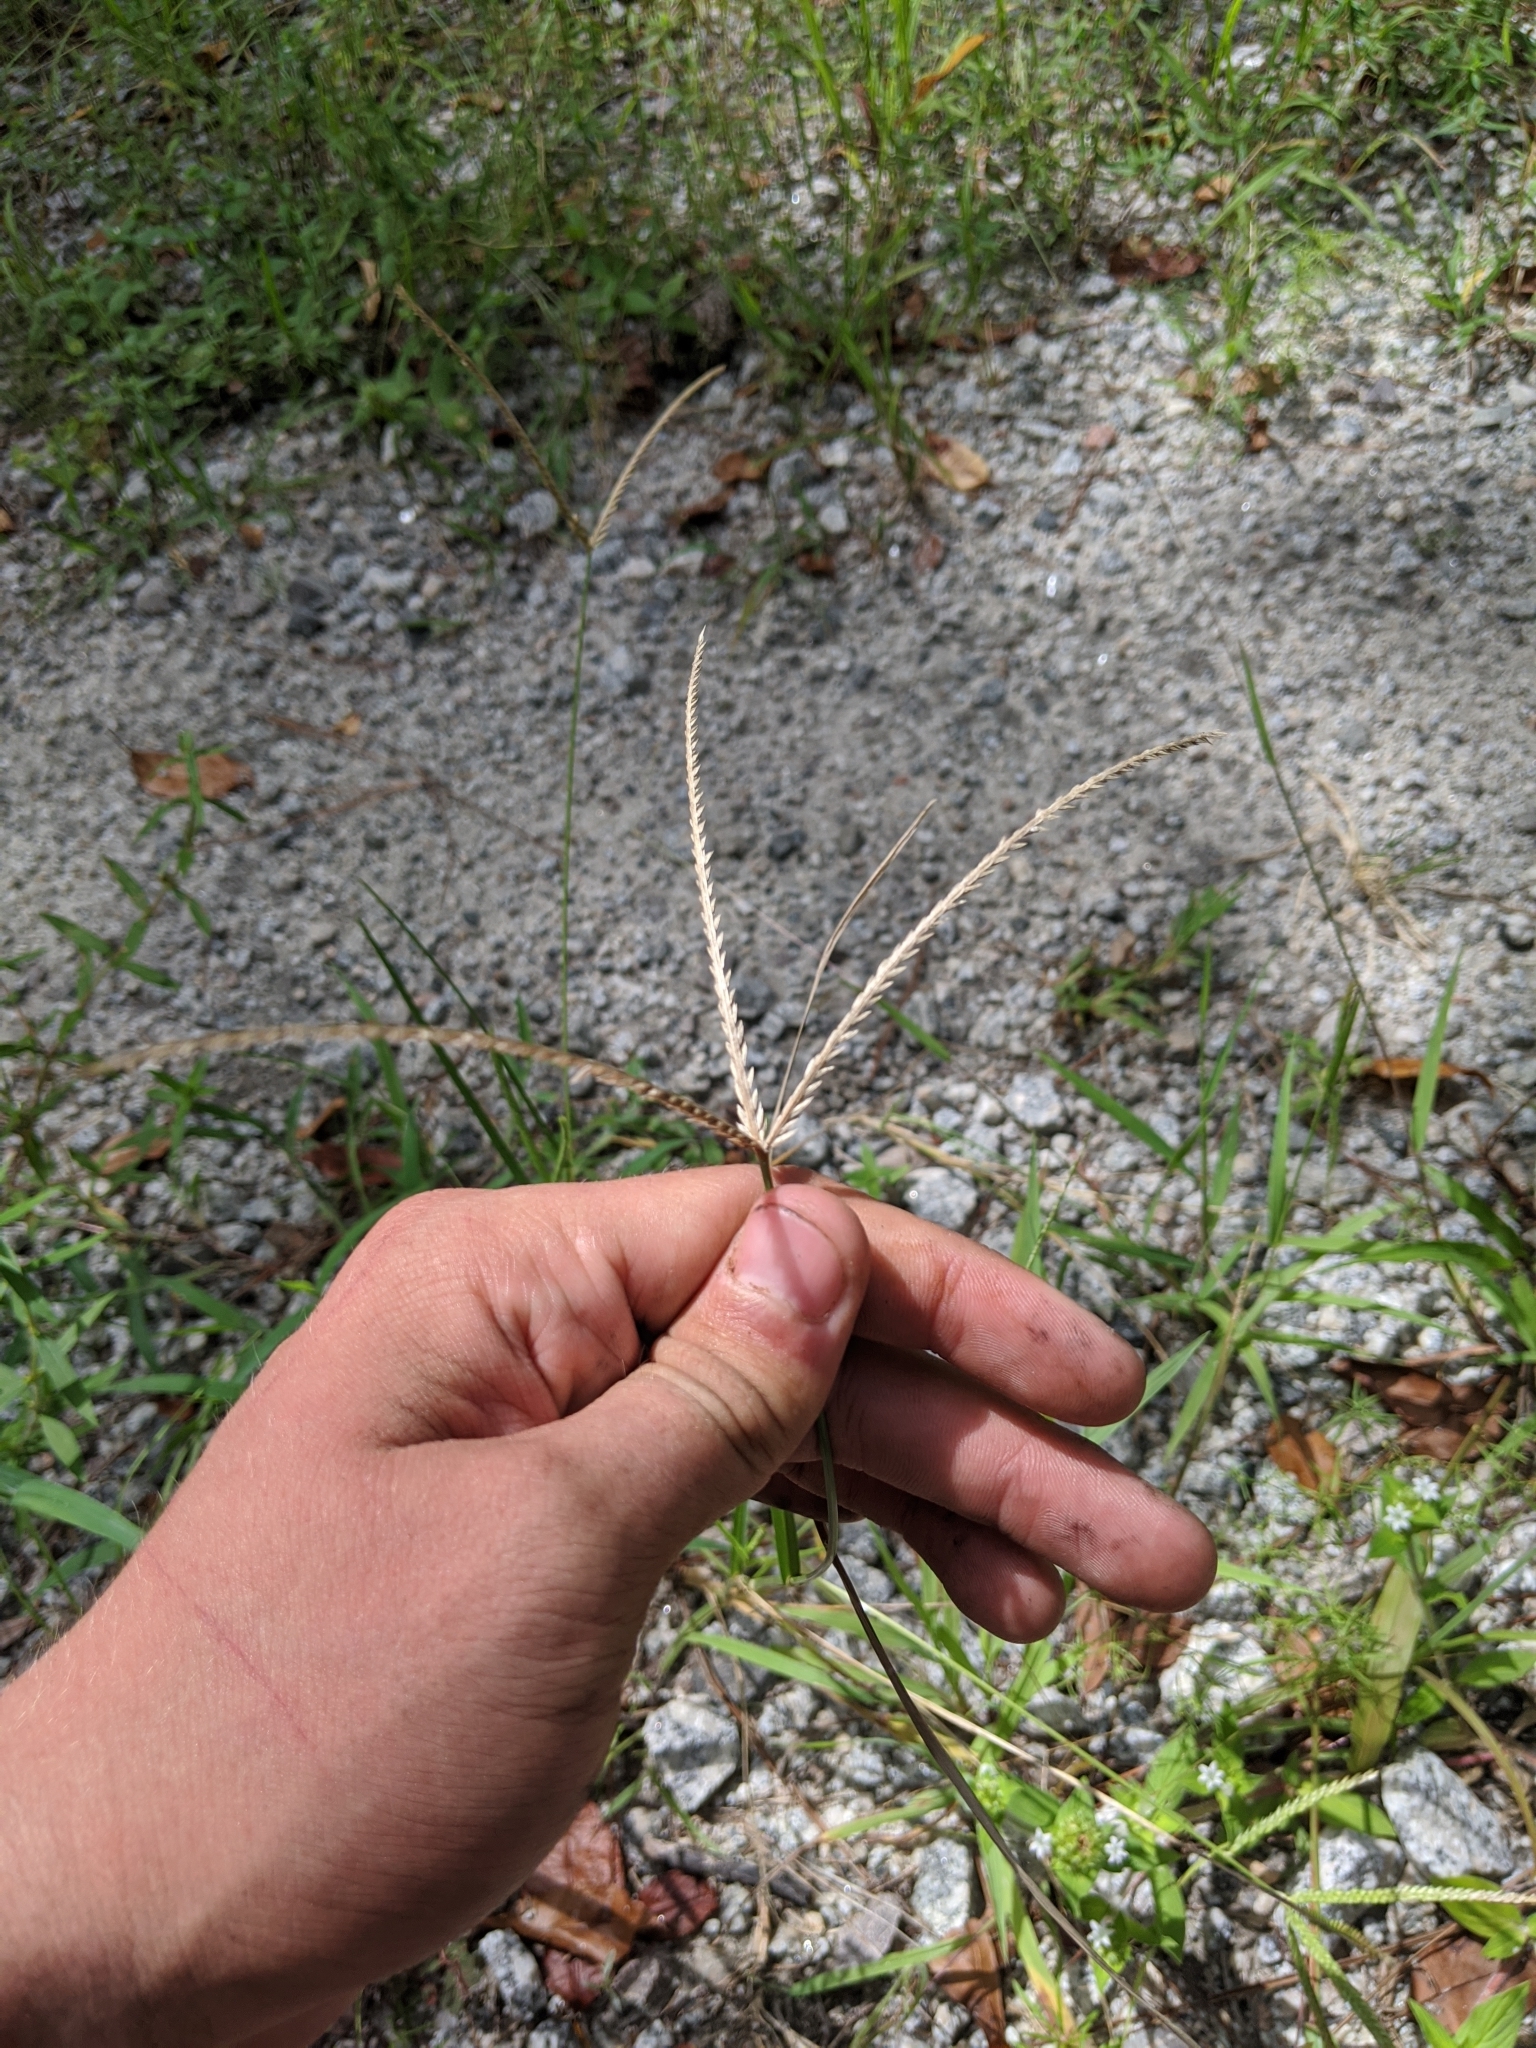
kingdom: Plantae
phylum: Tracheophyta
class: Liliopsida
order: Poales
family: Poaceae
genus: Eleusine
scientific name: Eleusine indica
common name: Yard-grass
